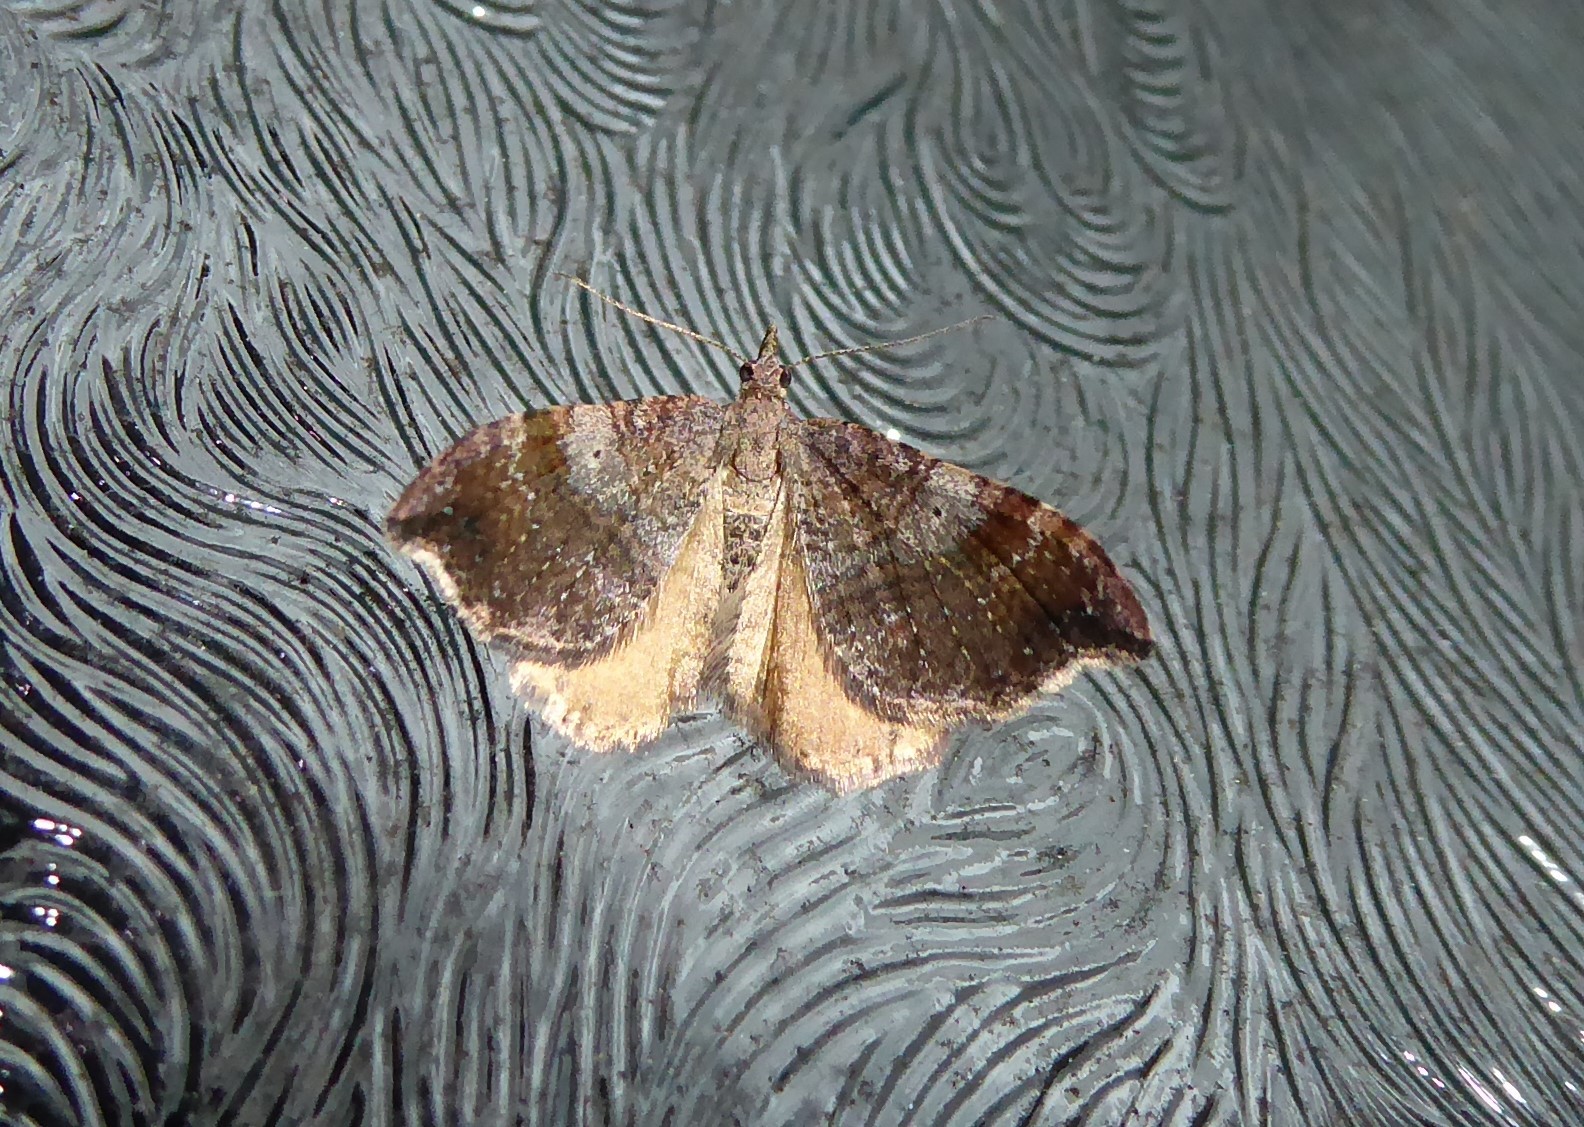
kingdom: Animalia
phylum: Arthropoda
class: Insecta
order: Lepidoptera
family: Geometridae
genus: Homodotis
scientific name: Homodotis megaspilata
